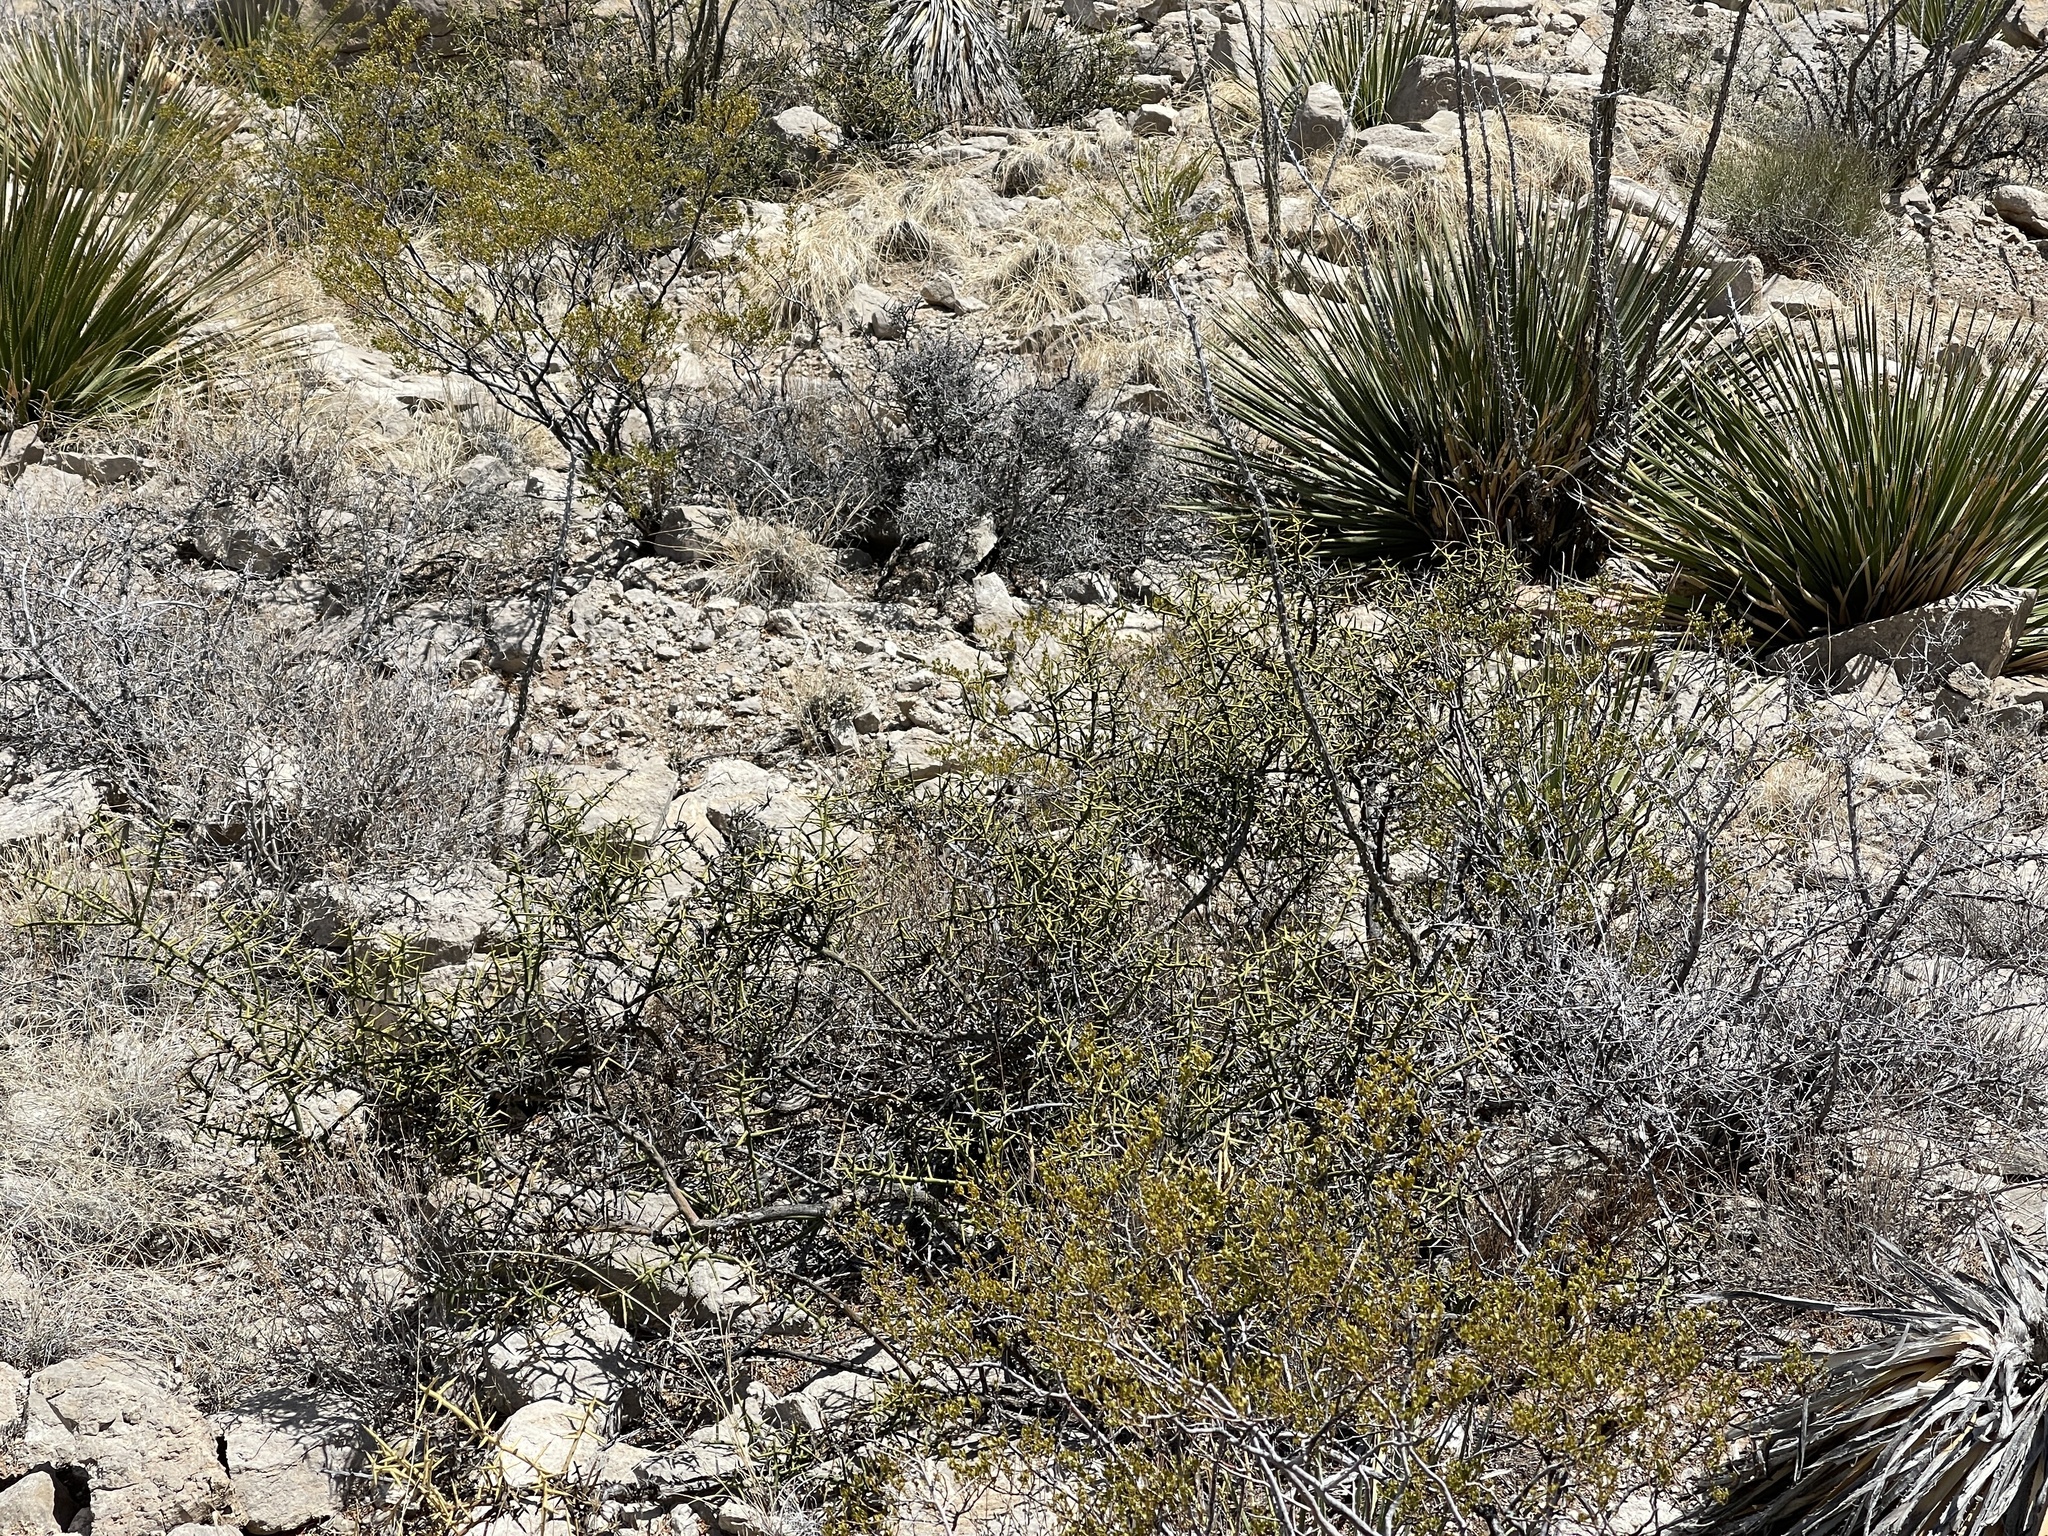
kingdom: Plantae
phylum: Tracheophyta
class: Magnoliopsida
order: Brassicales
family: Koeberliniaceae
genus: Koeberlinia
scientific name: Koeberlinia spinosa
